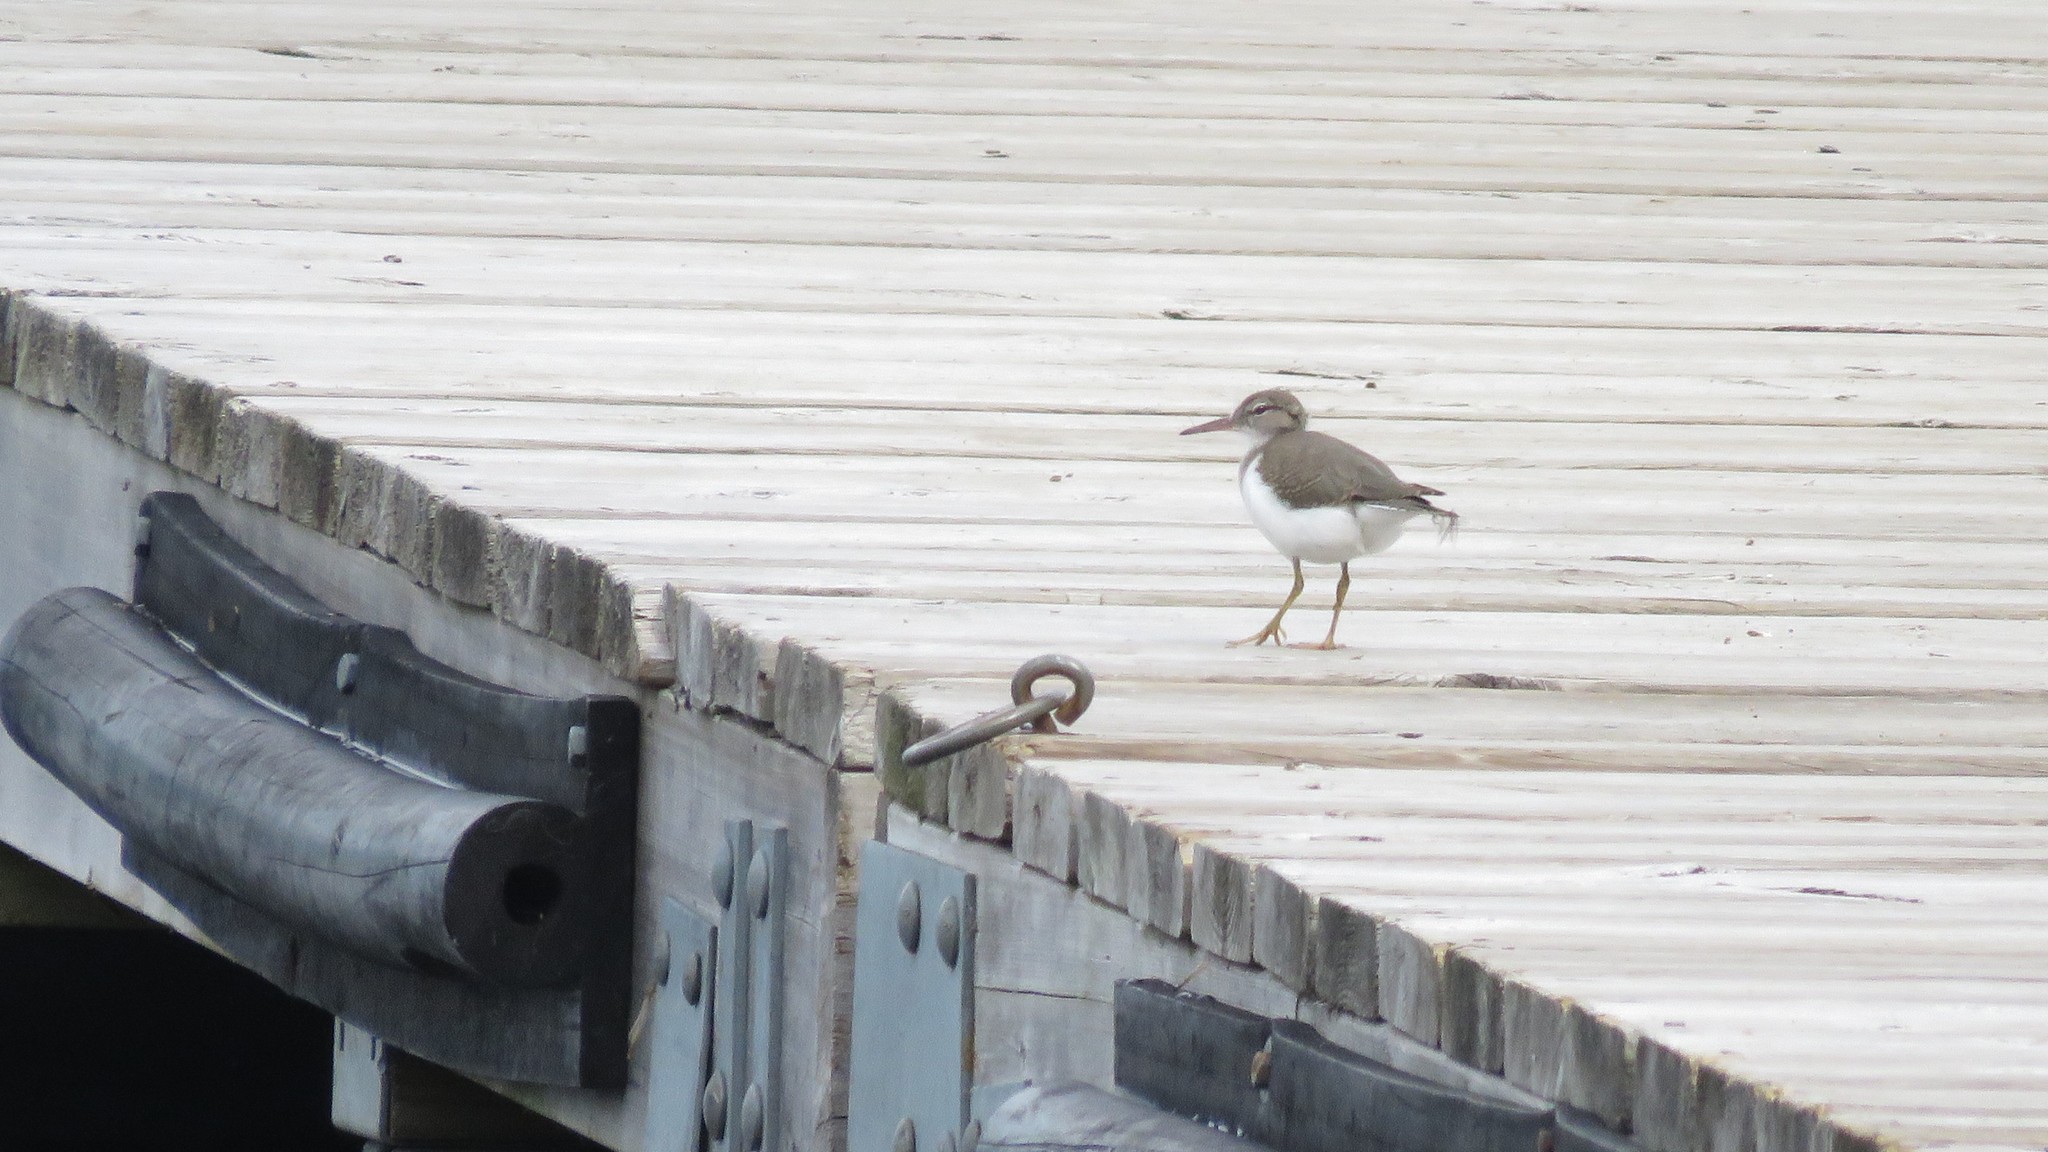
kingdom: Animalia
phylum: Chordata
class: Aves
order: Charadriiformes
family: Scolopacidae
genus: Actitis
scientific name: Actitis macularius
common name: Spotted sandpiper
